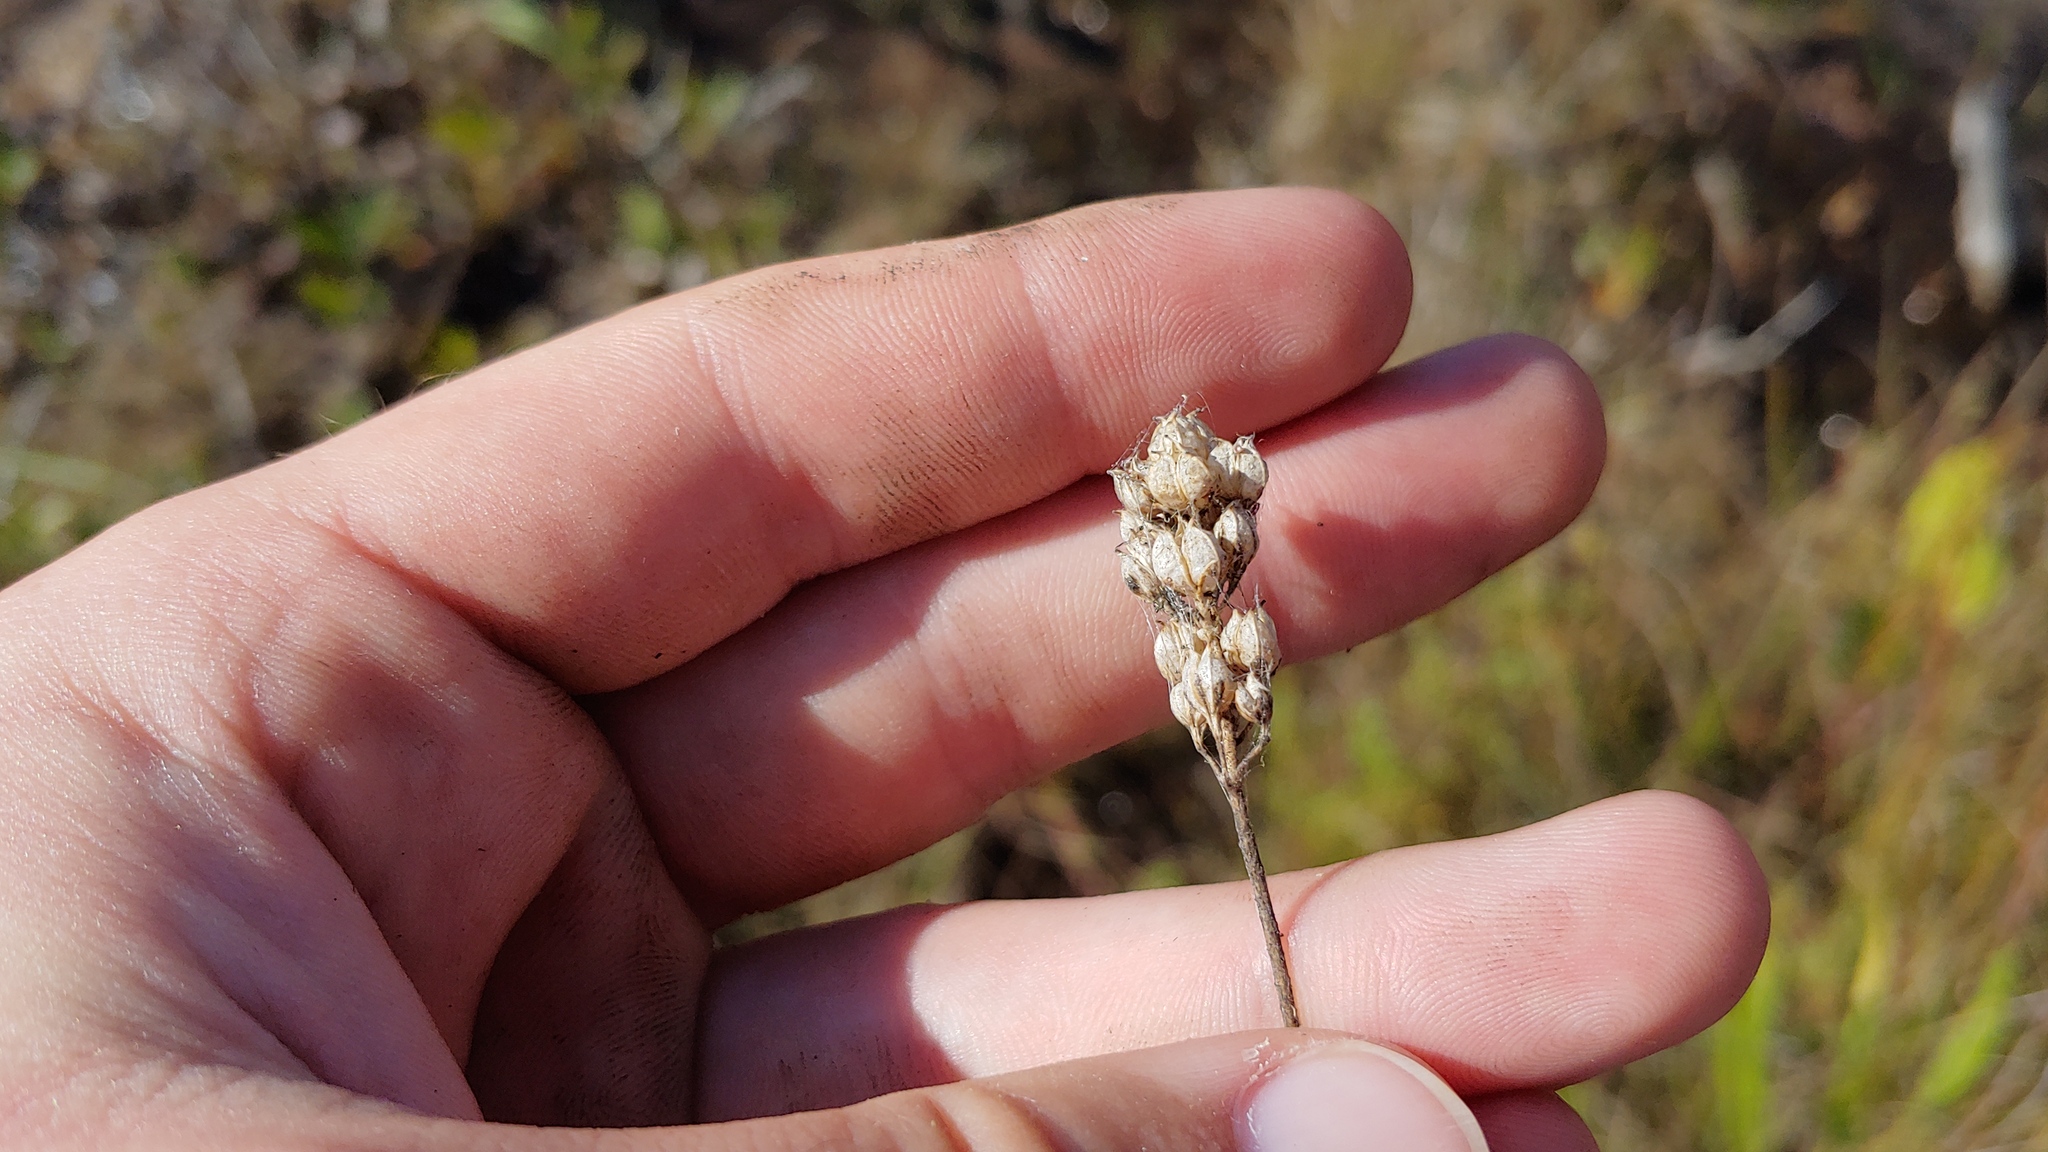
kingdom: Plantae
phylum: Tracheophyta
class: Liliopsida
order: Alismatales
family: Tofieldiaceae
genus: Triantha
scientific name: Triantha glutinosa
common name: Glutinous tofieldia
